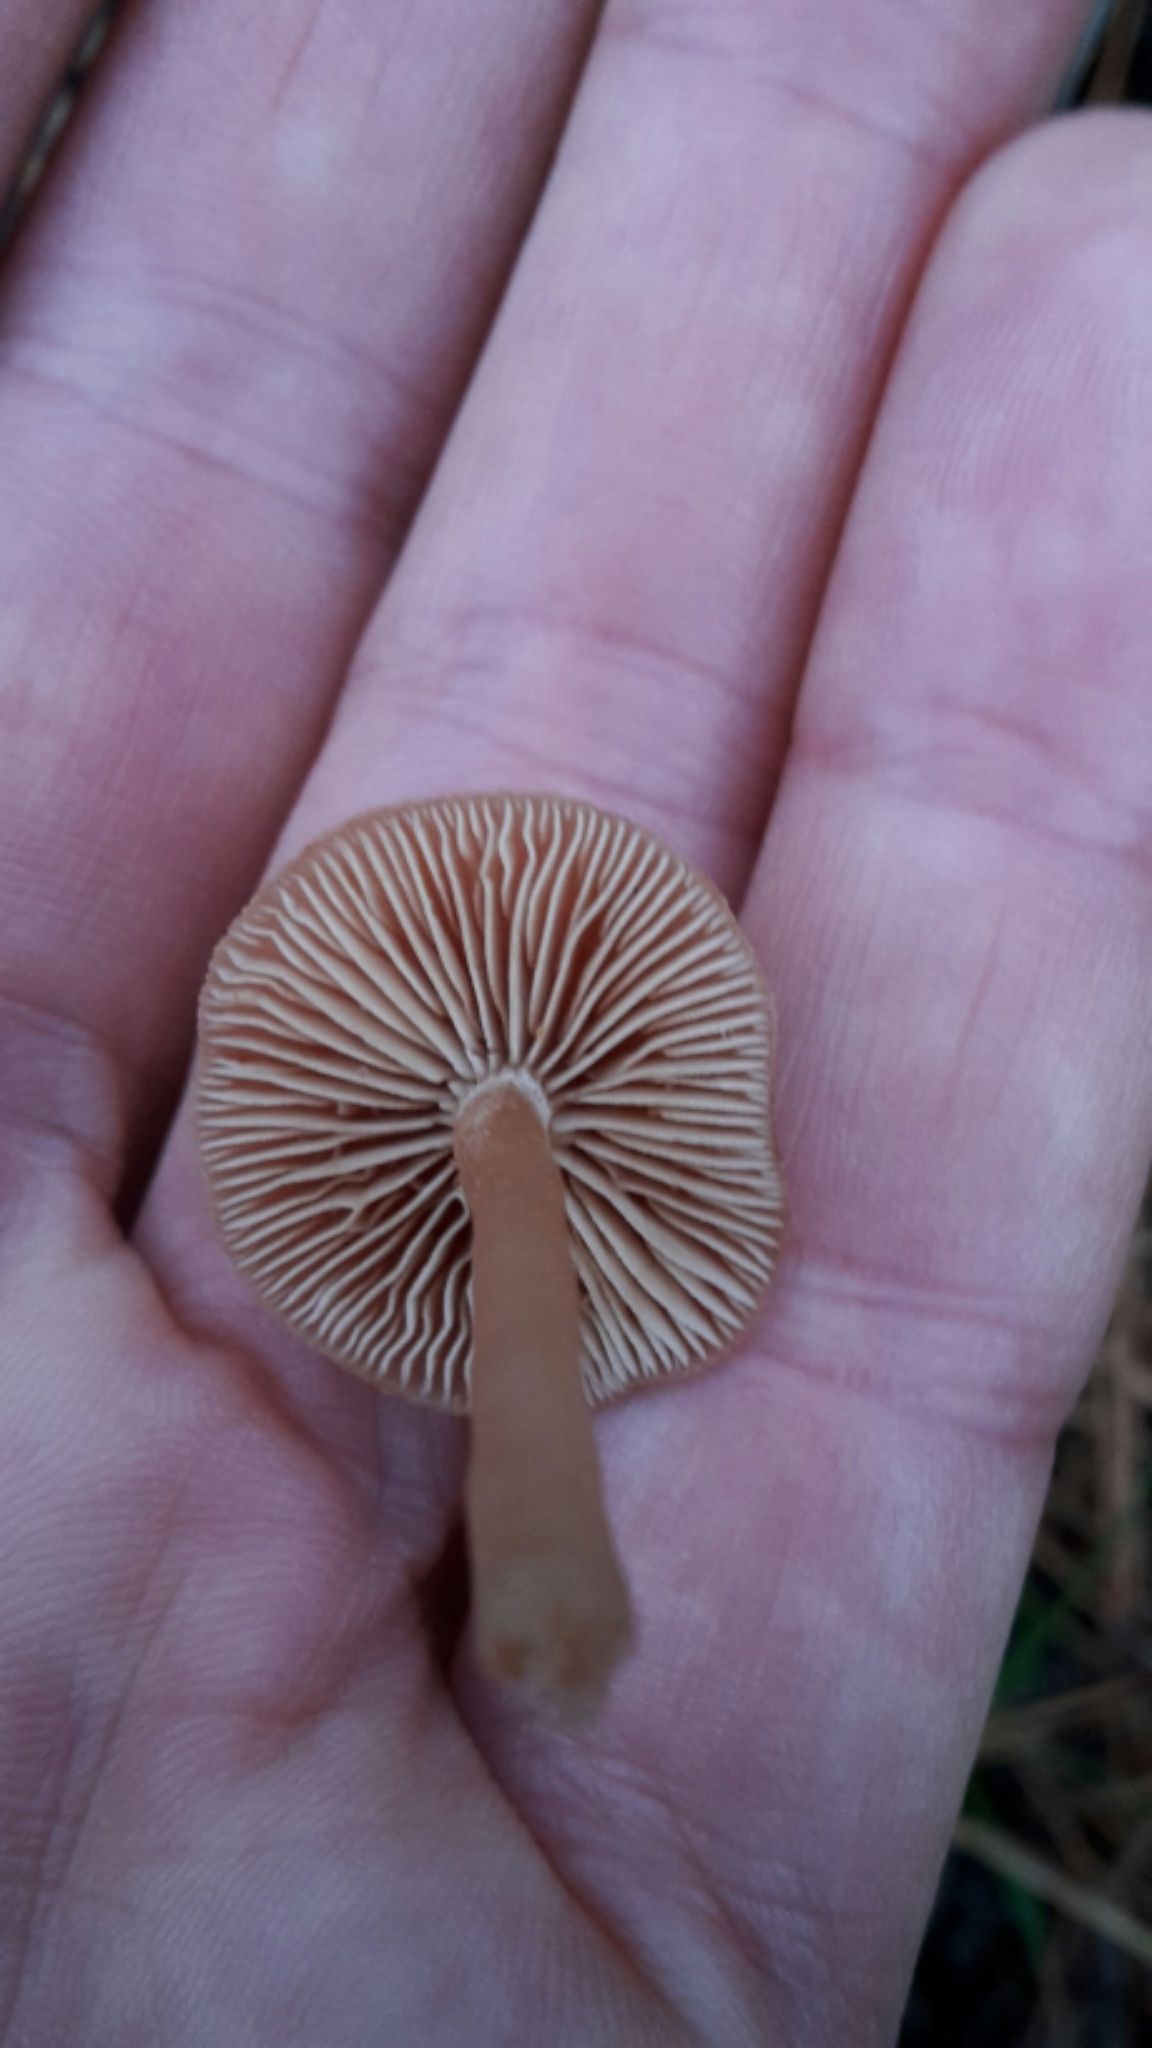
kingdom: Fungi
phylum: Basidiomycota
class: Agaricomycetes
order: Agaricales
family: Tubariaceae
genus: Tubaria
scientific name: Tubaria furfuracea
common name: Scurfy twiglet
